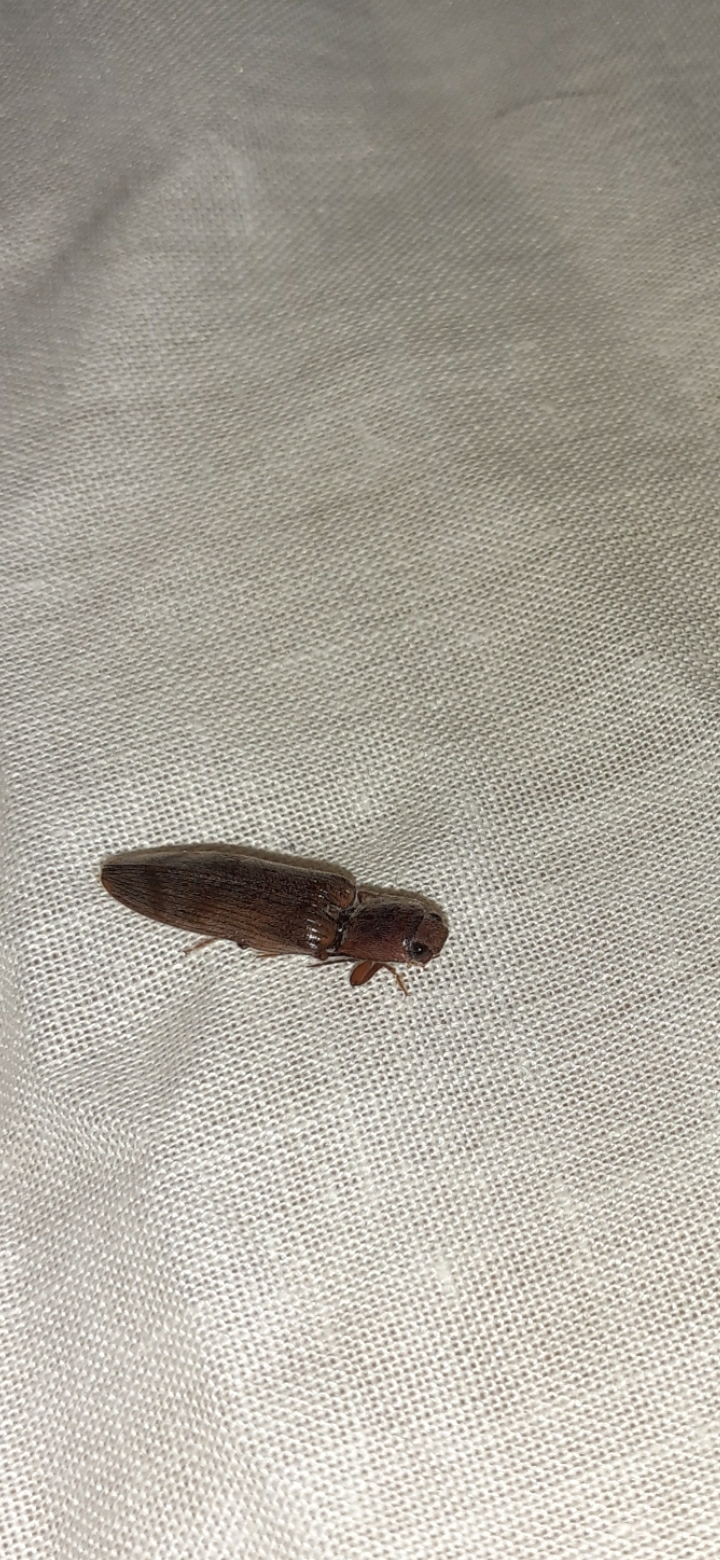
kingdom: Animalia
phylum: Arthropoda
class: Insecta
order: Coleoptera
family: Elateridae
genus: Stenagostus
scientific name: Stenagostus rhombeus
